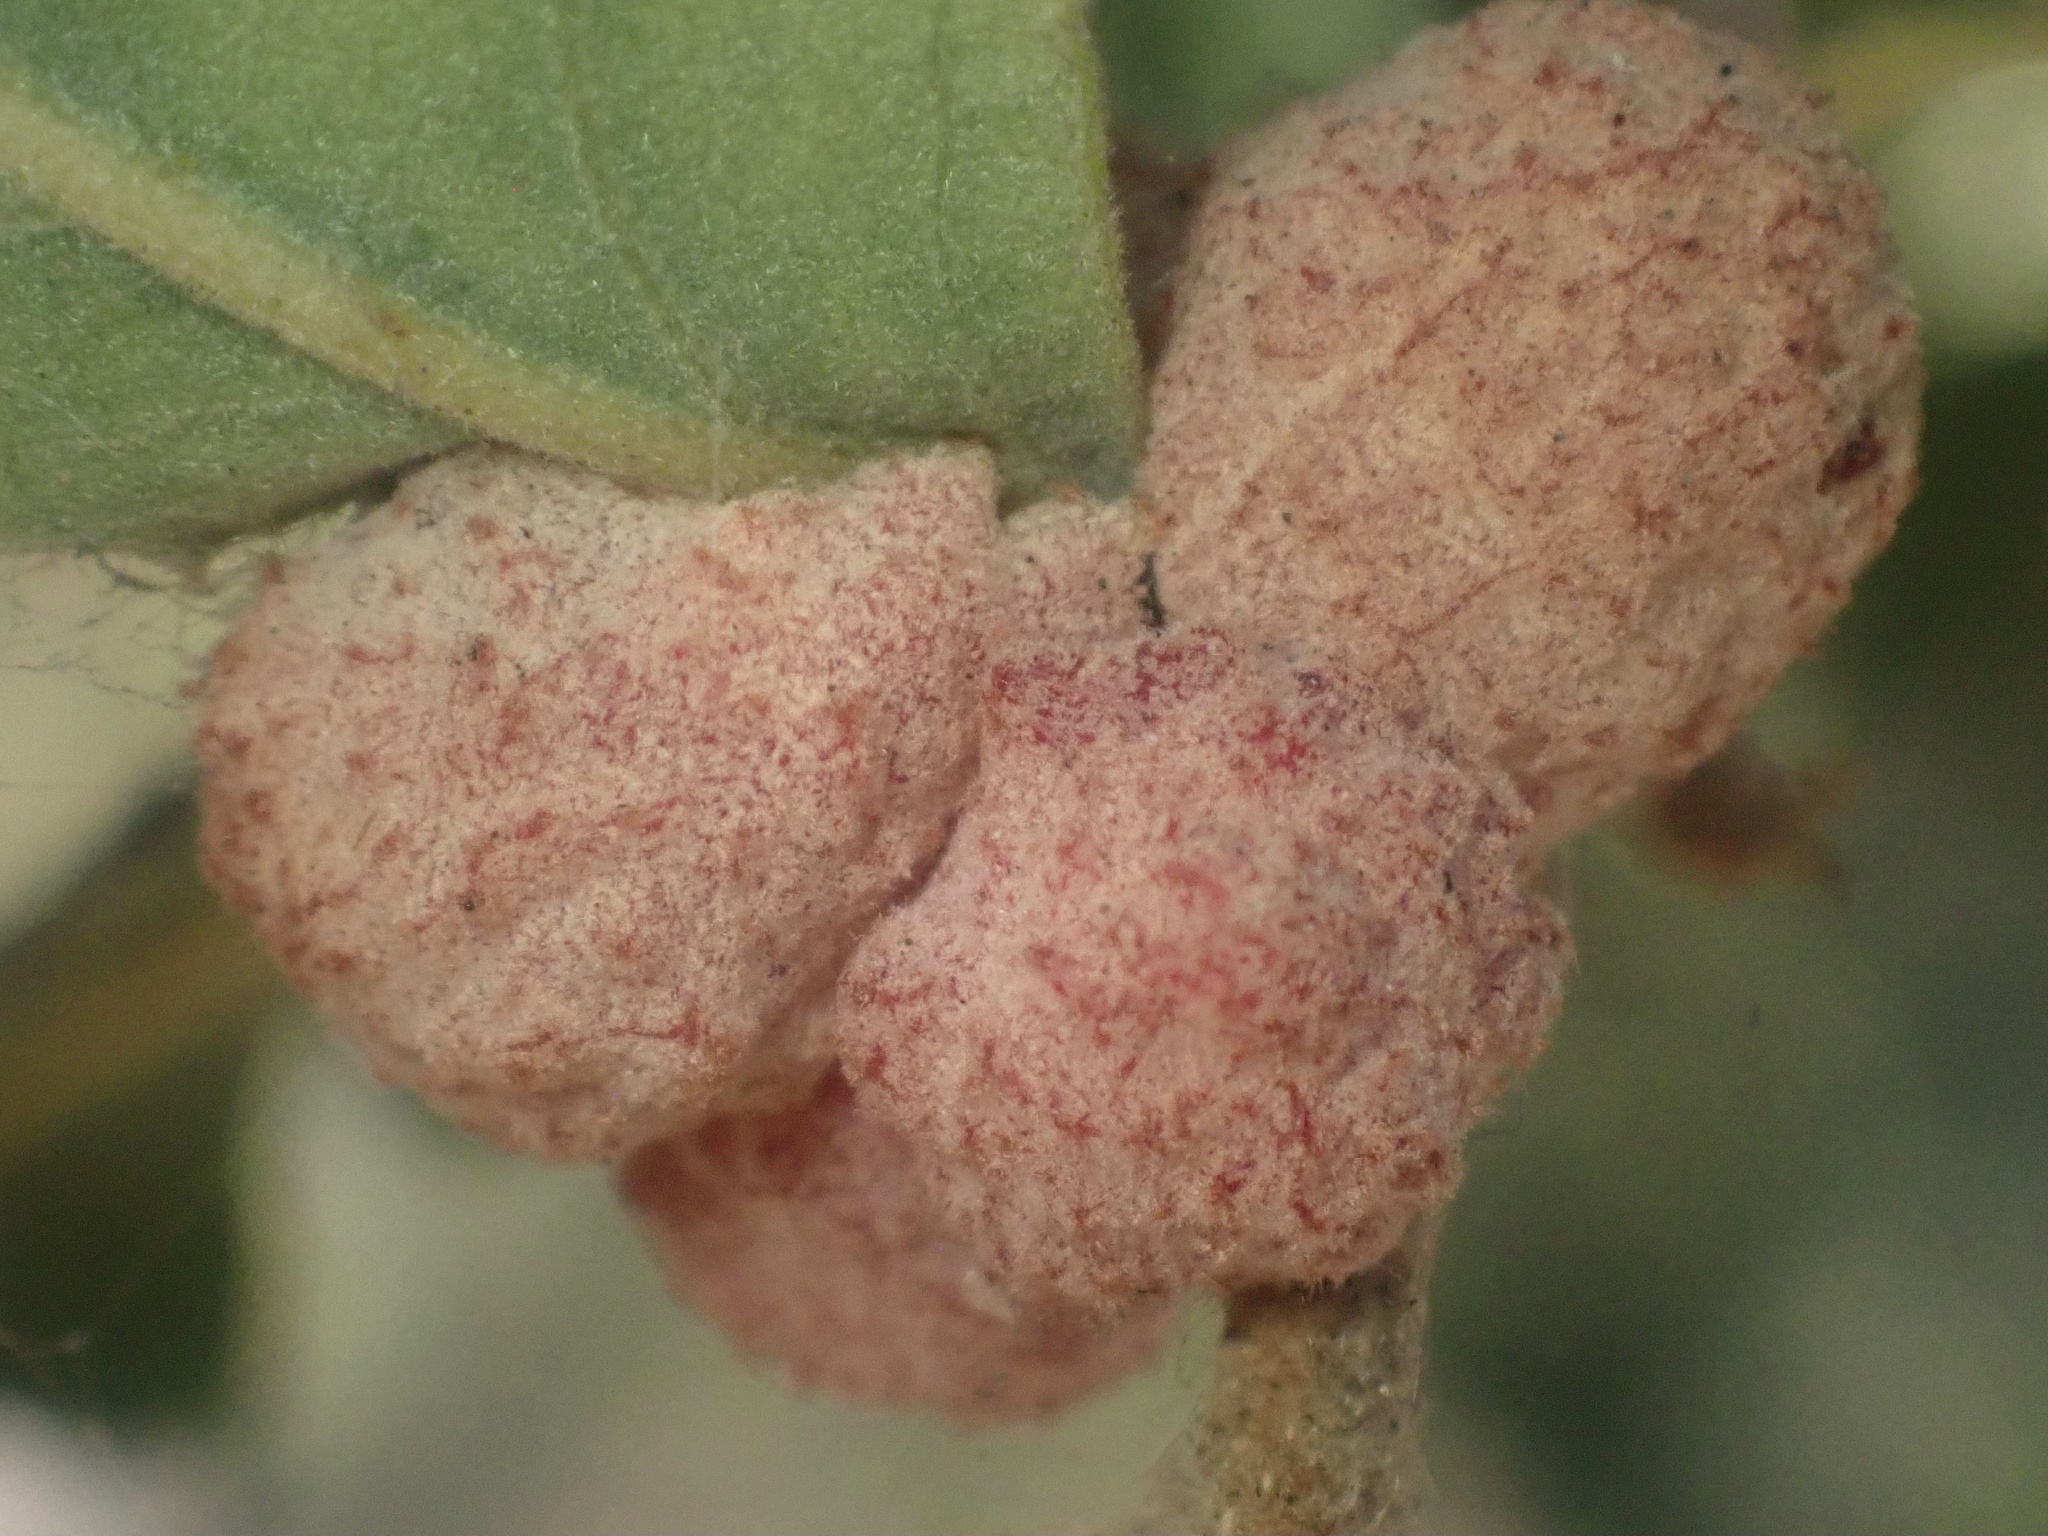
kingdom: Animalia
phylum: Arthropoda
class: Insecta
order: Hymenoptera
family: Cynipidae
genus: Cynips
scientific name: Cynips conspicua
